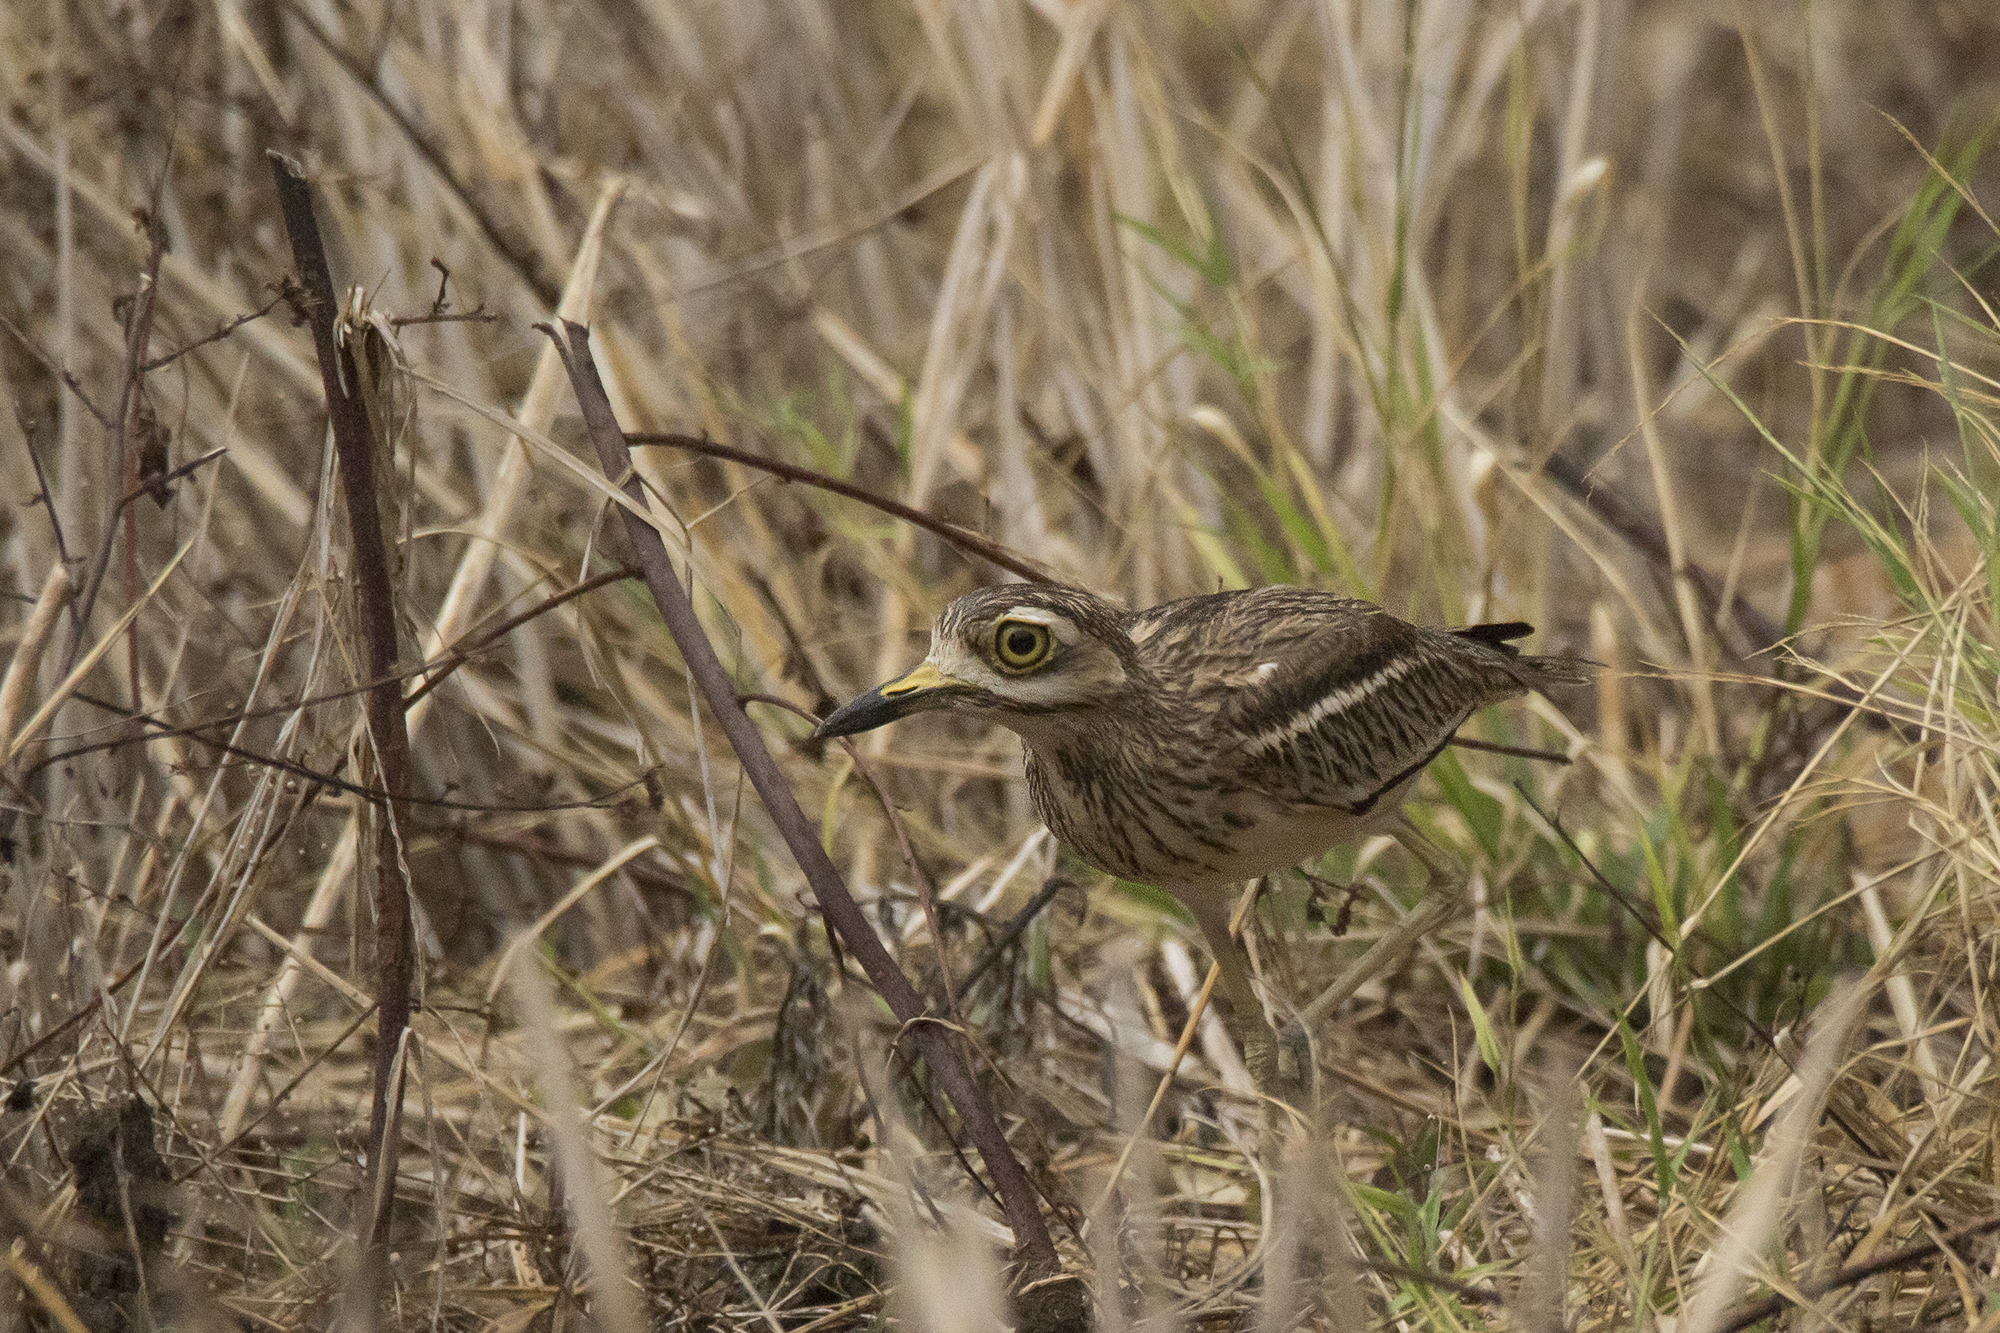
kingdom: Animalia
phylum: Chordata
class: Aves
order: Charadriiformes
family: Burhinidae
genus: Burhinus
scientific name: Burhinus indicus
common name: Indian thick-knee
